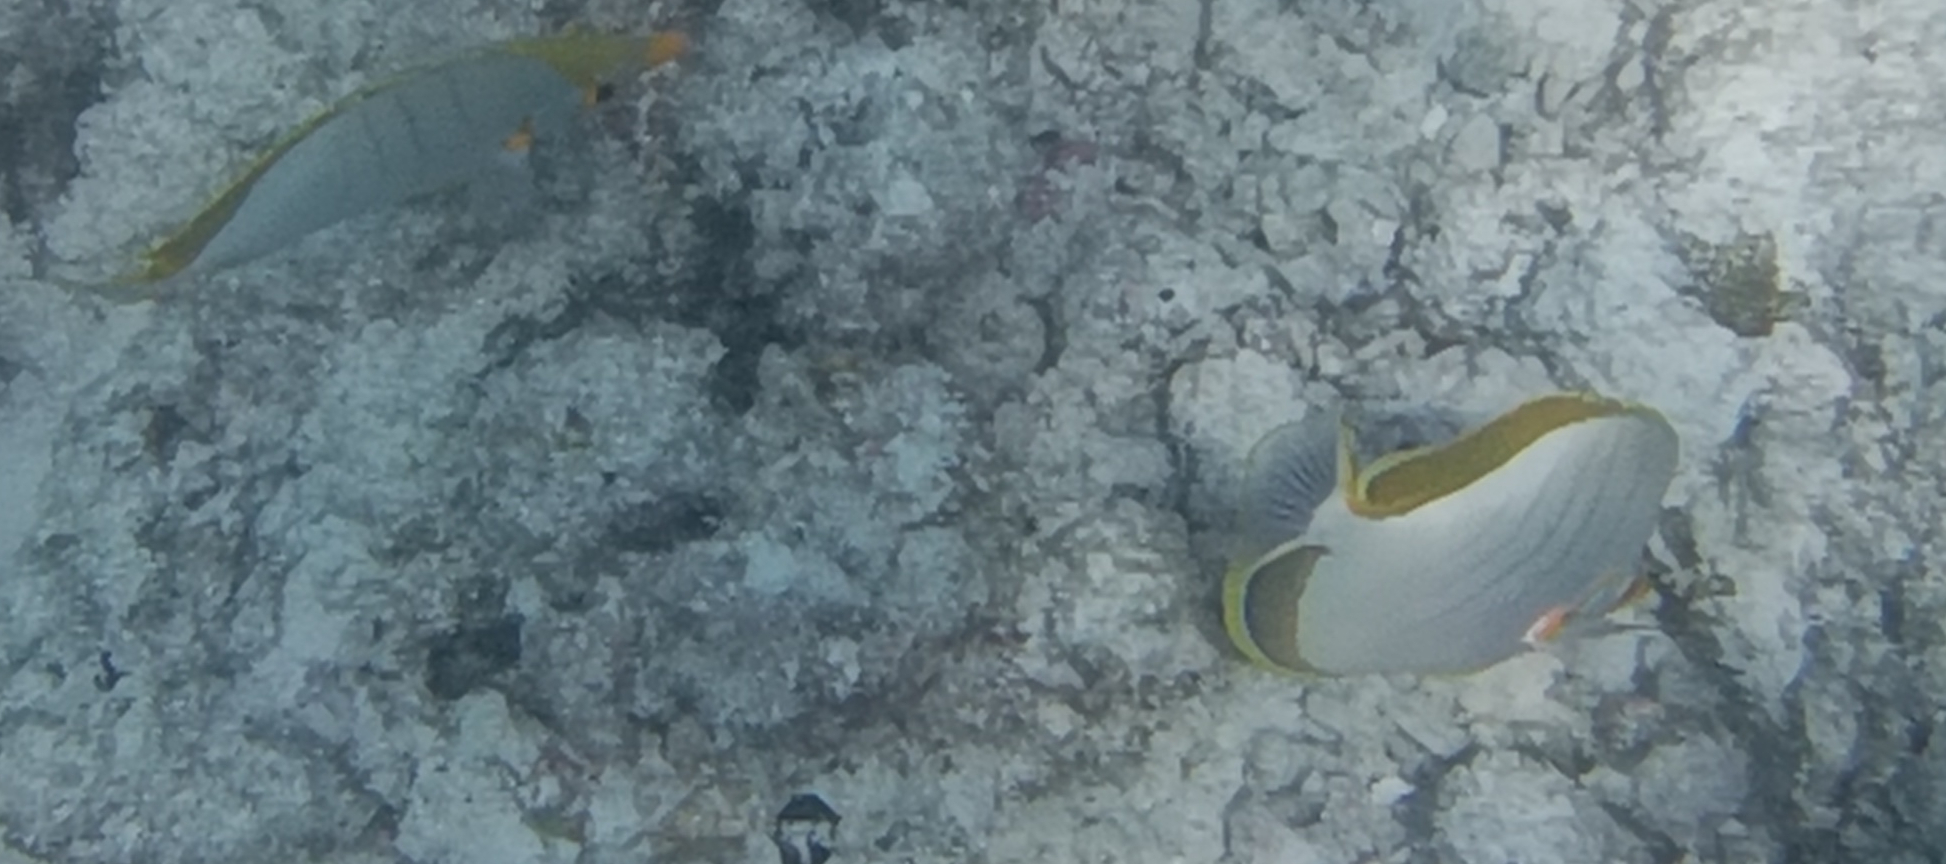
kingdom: Animalia
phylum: Chordata
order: Perciformes
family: Chaetodontidae
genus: Chaetodon
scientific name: Chaetodon xanthocephalus
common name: Yellowhead butterflyfish
